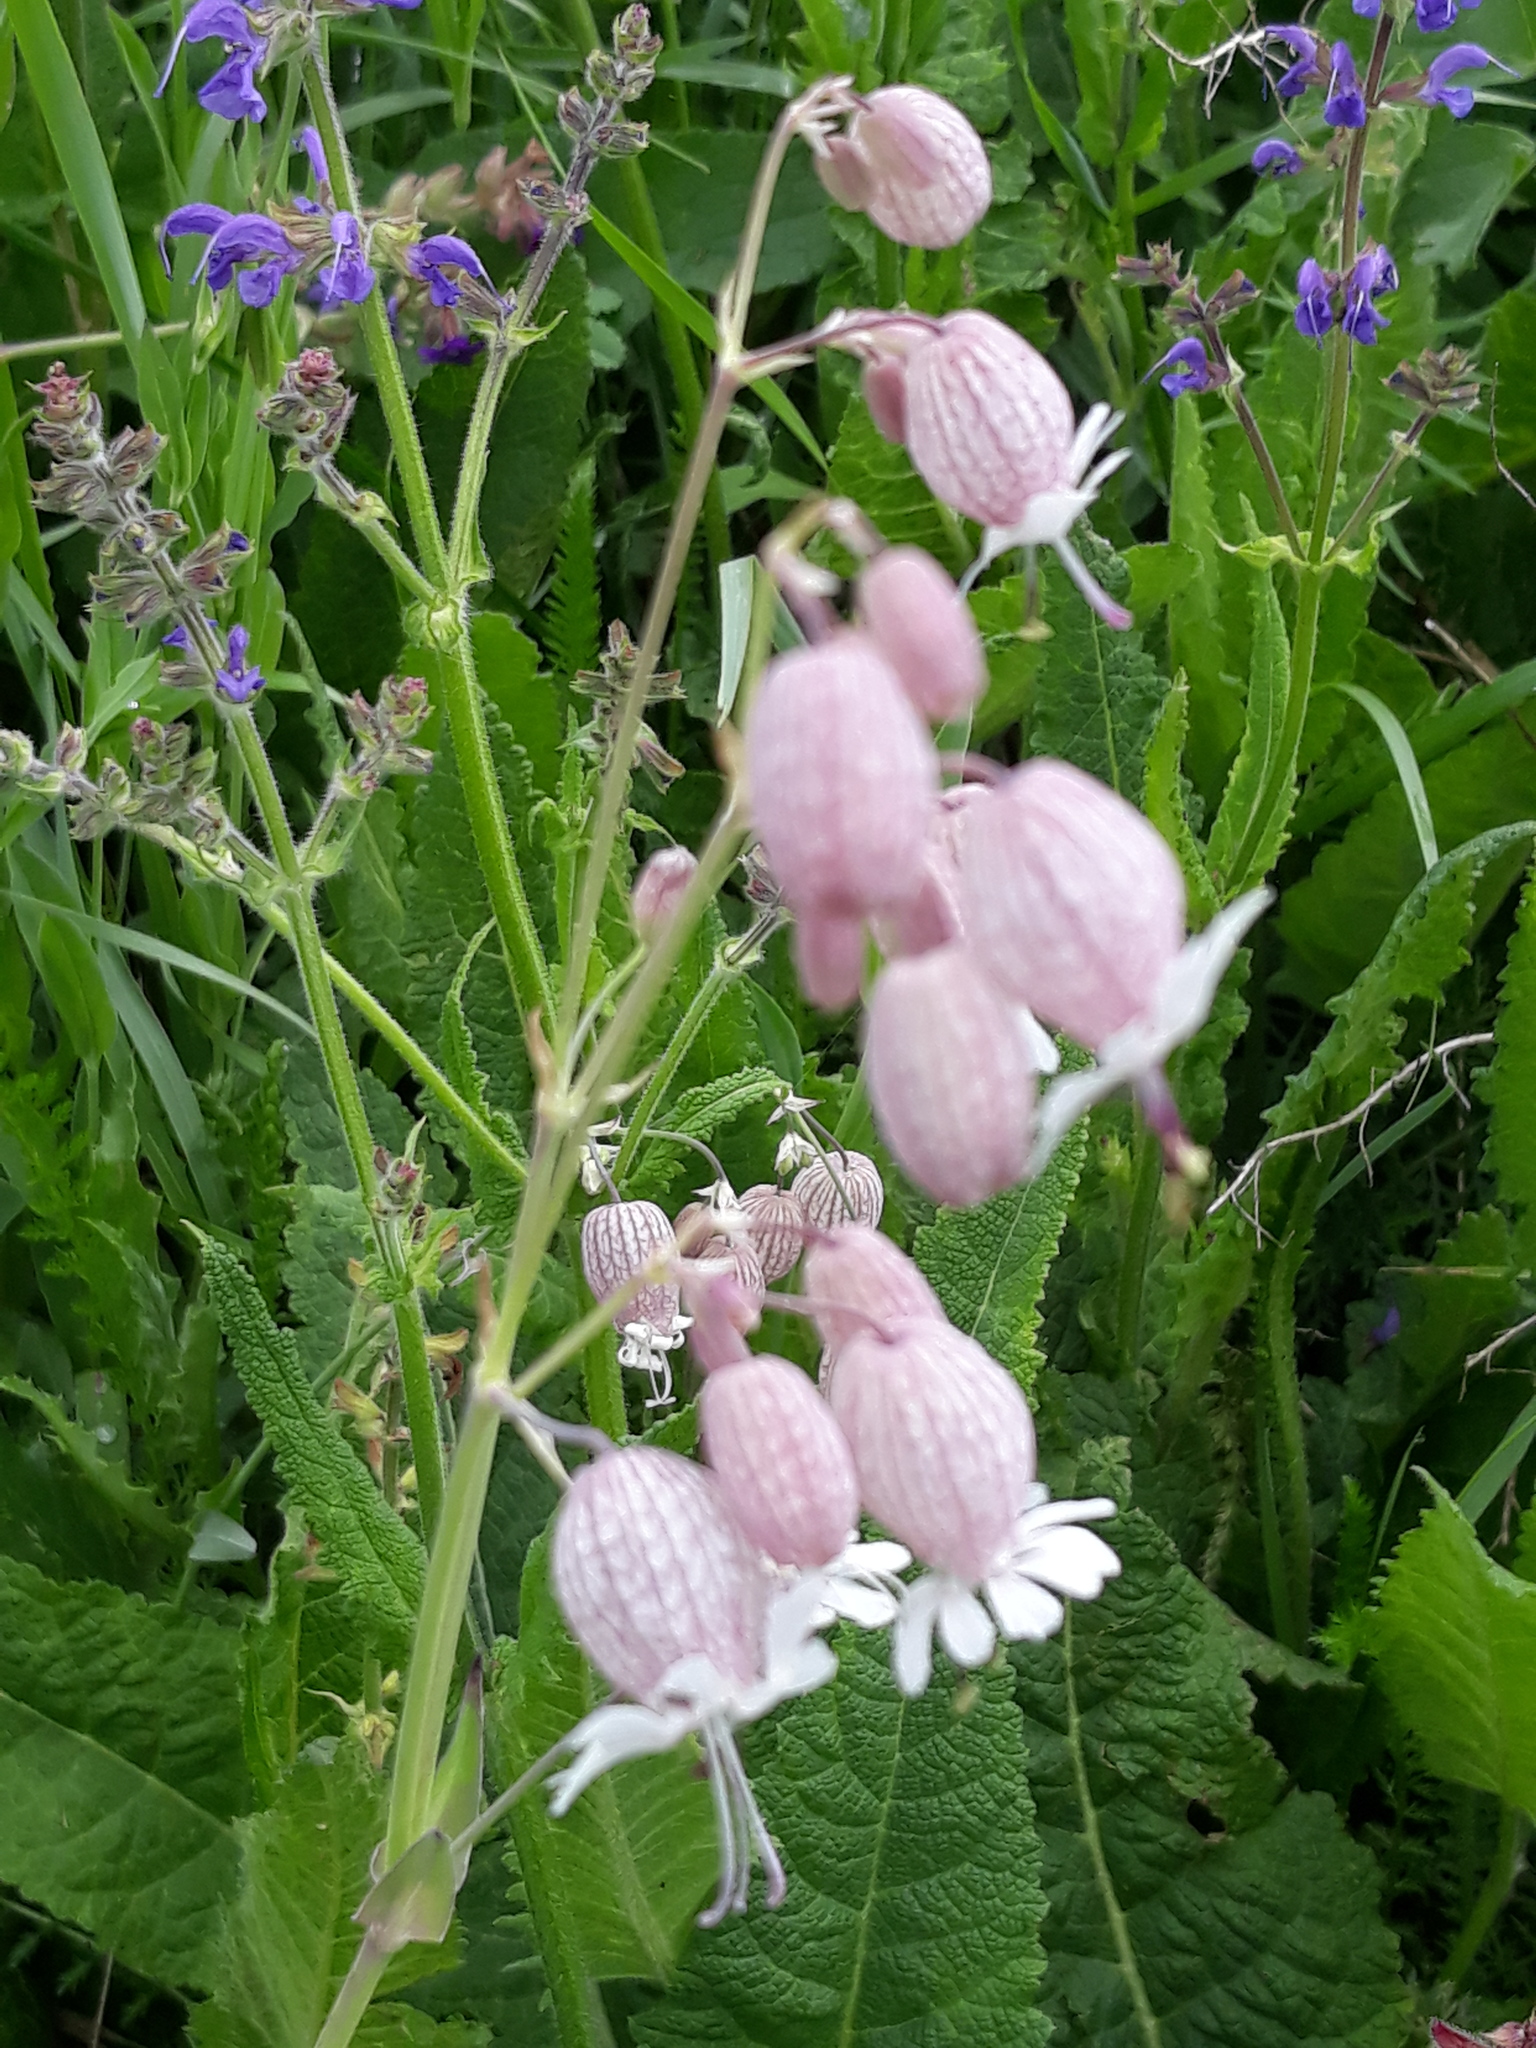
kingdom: Plantae
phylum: Tracheophyta
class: Magnoliopsida
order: Caryophyllales
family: Caryophyllaceae
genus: Silene
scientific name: Silene vulgaris
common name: Bladder campion
